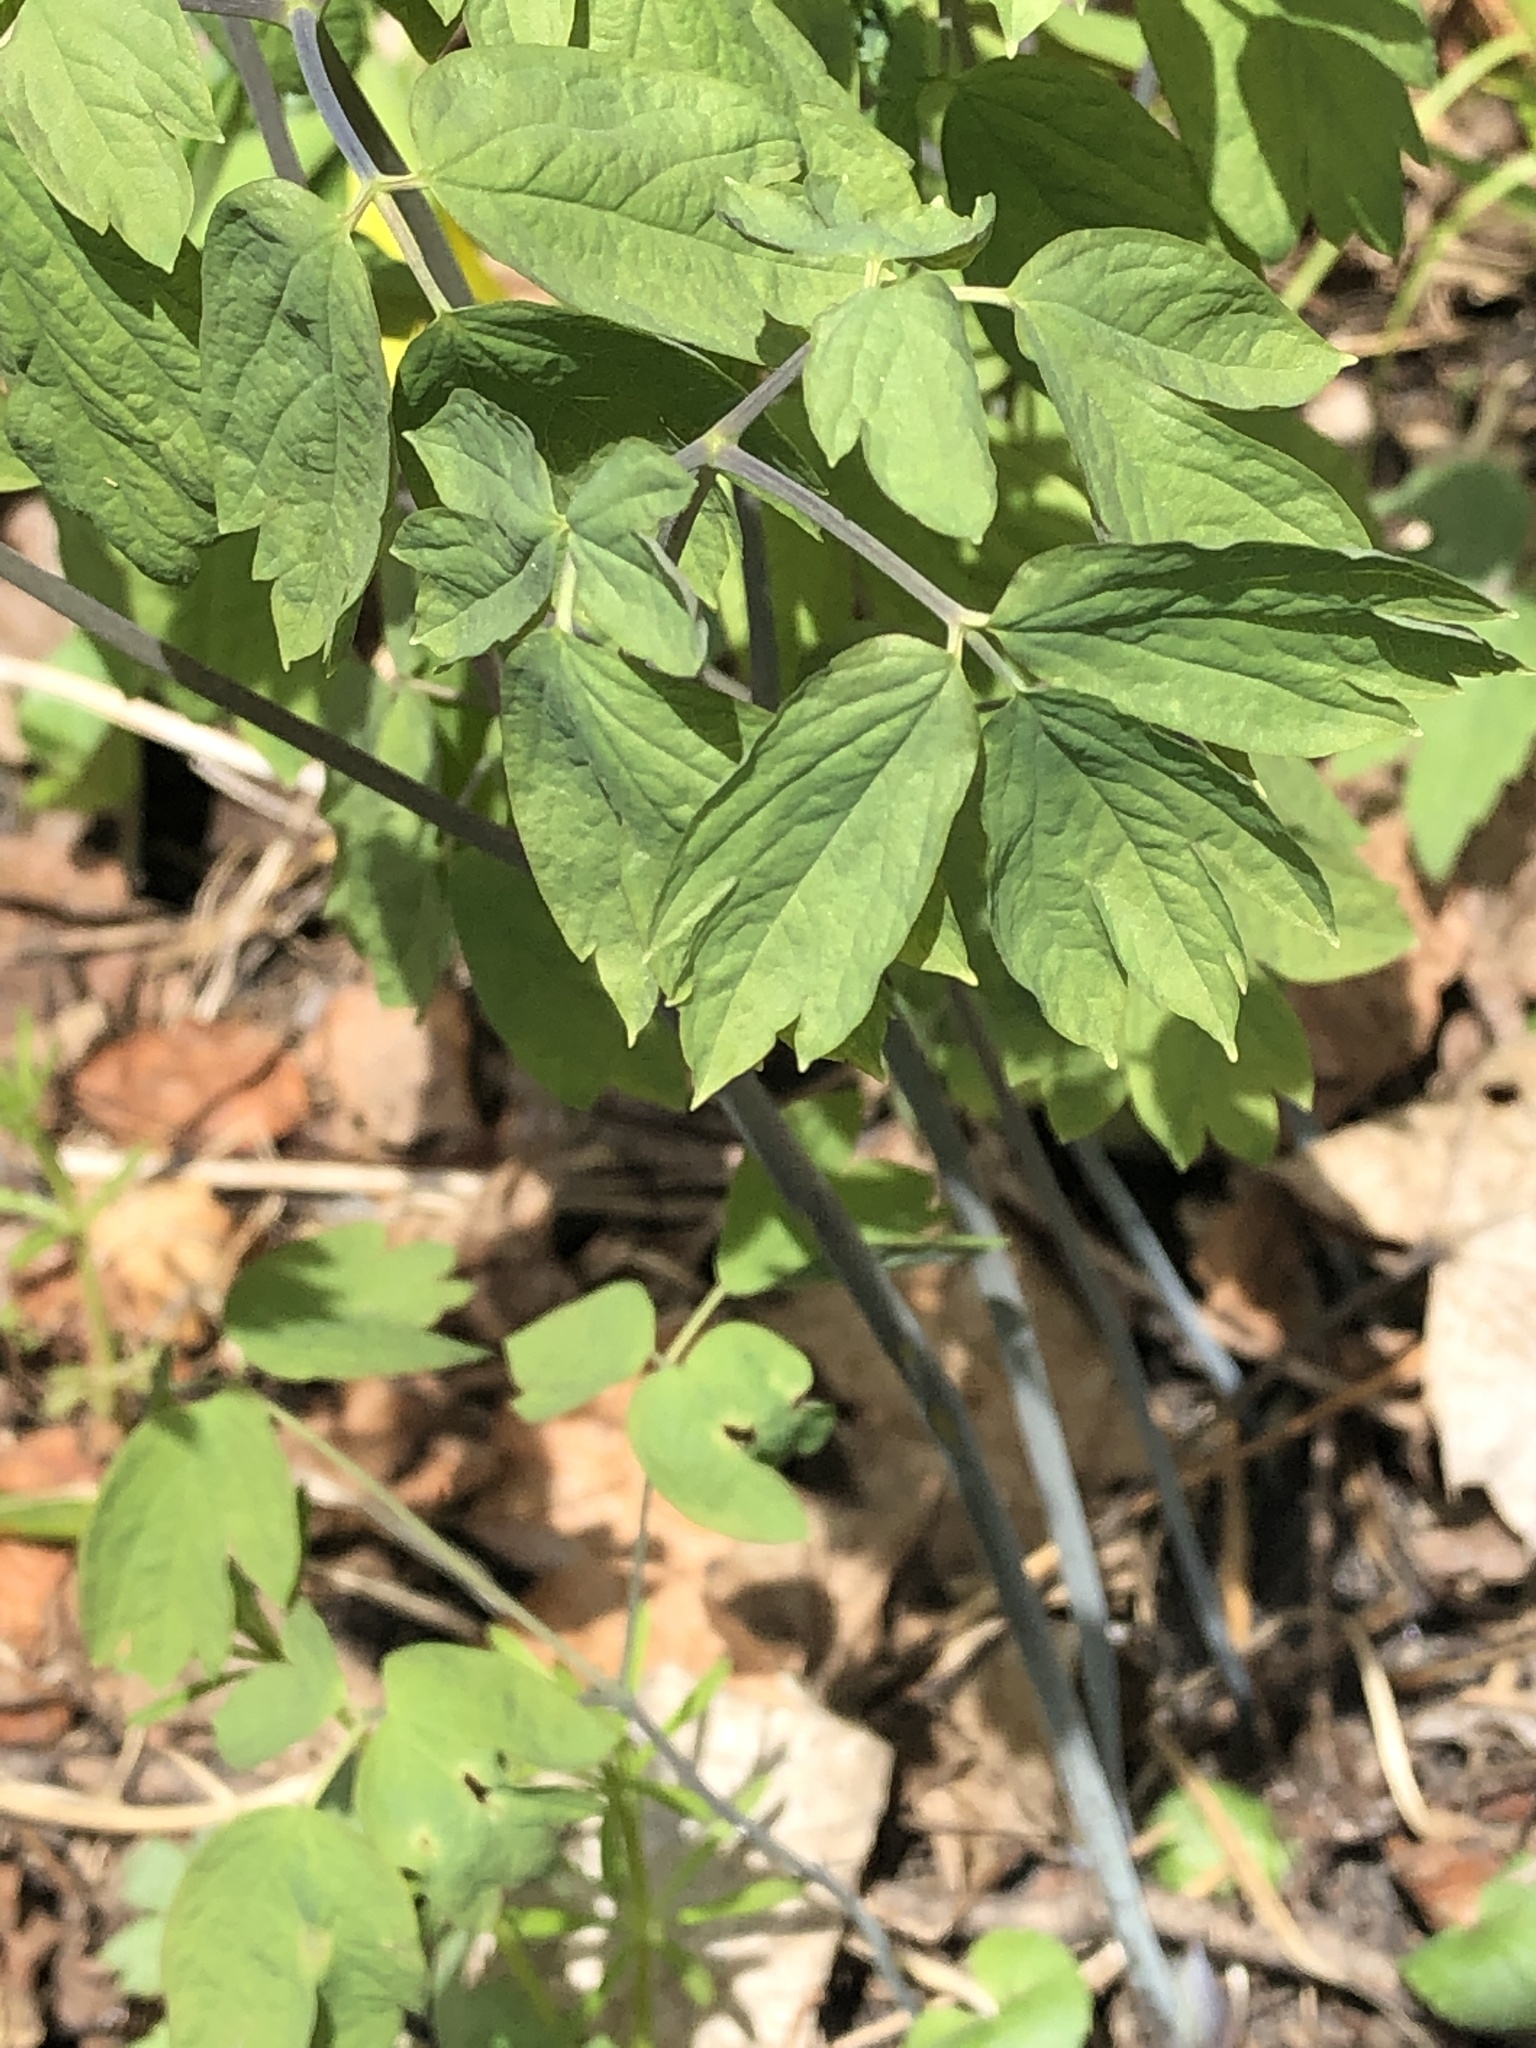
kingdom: Plantae
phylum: Tracheophyta
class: Magnoliopsida
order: Ranunculales
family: Berberidaceae
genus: Caulophyllum
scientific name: Caulophyllum thalictroides
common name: Blue cohosh
